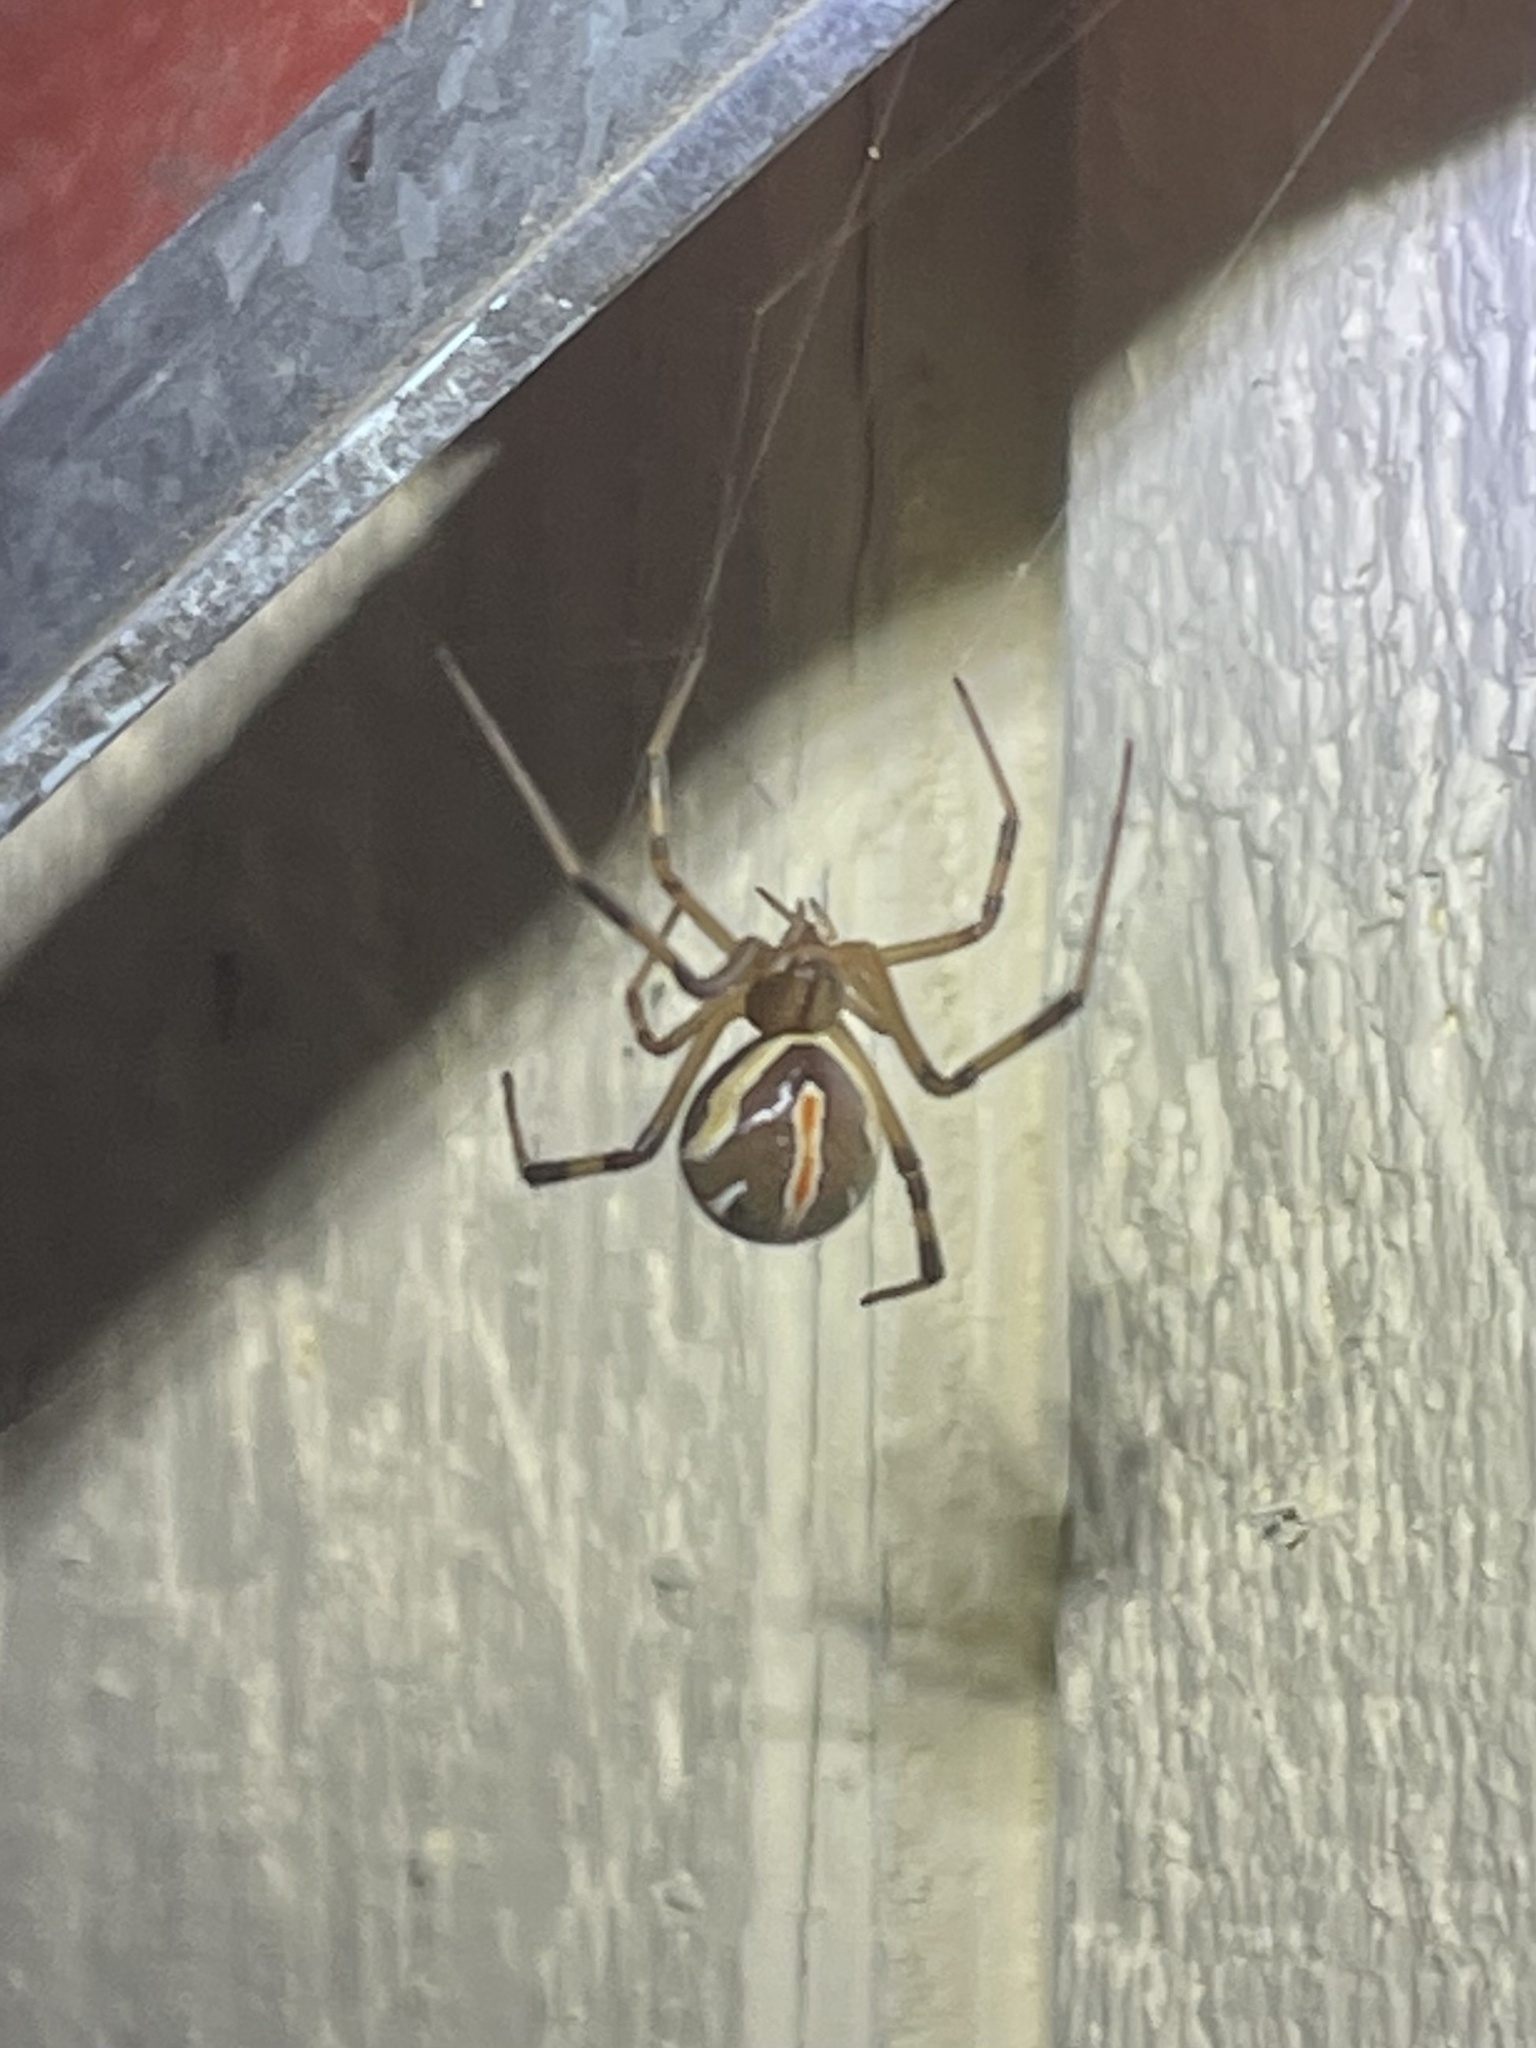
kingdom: Animalia
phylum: Arthropoda
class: Arachnida
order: Araneae
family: Theridiidae
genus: Latrodectus
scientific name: Latrodectus hesperus
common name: Western black widow
